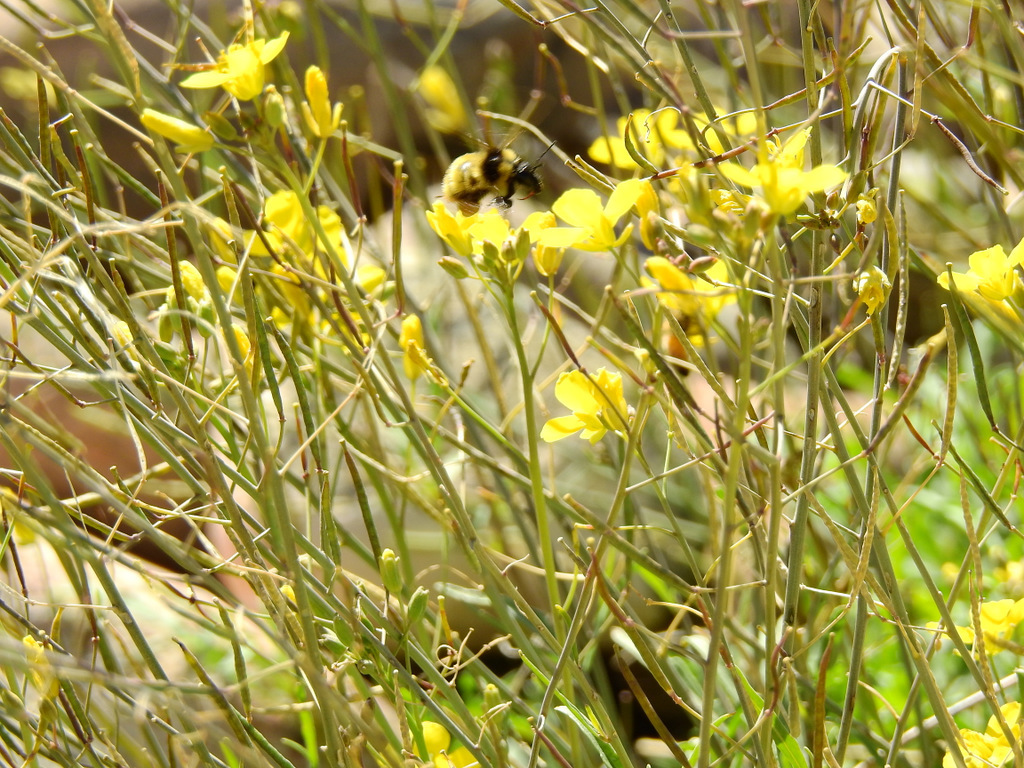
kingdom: Animalia
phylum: Arthropoda
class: Insecta
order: Hymenoptera
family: Apidae
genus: Bombus
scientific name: Bombus opifex
